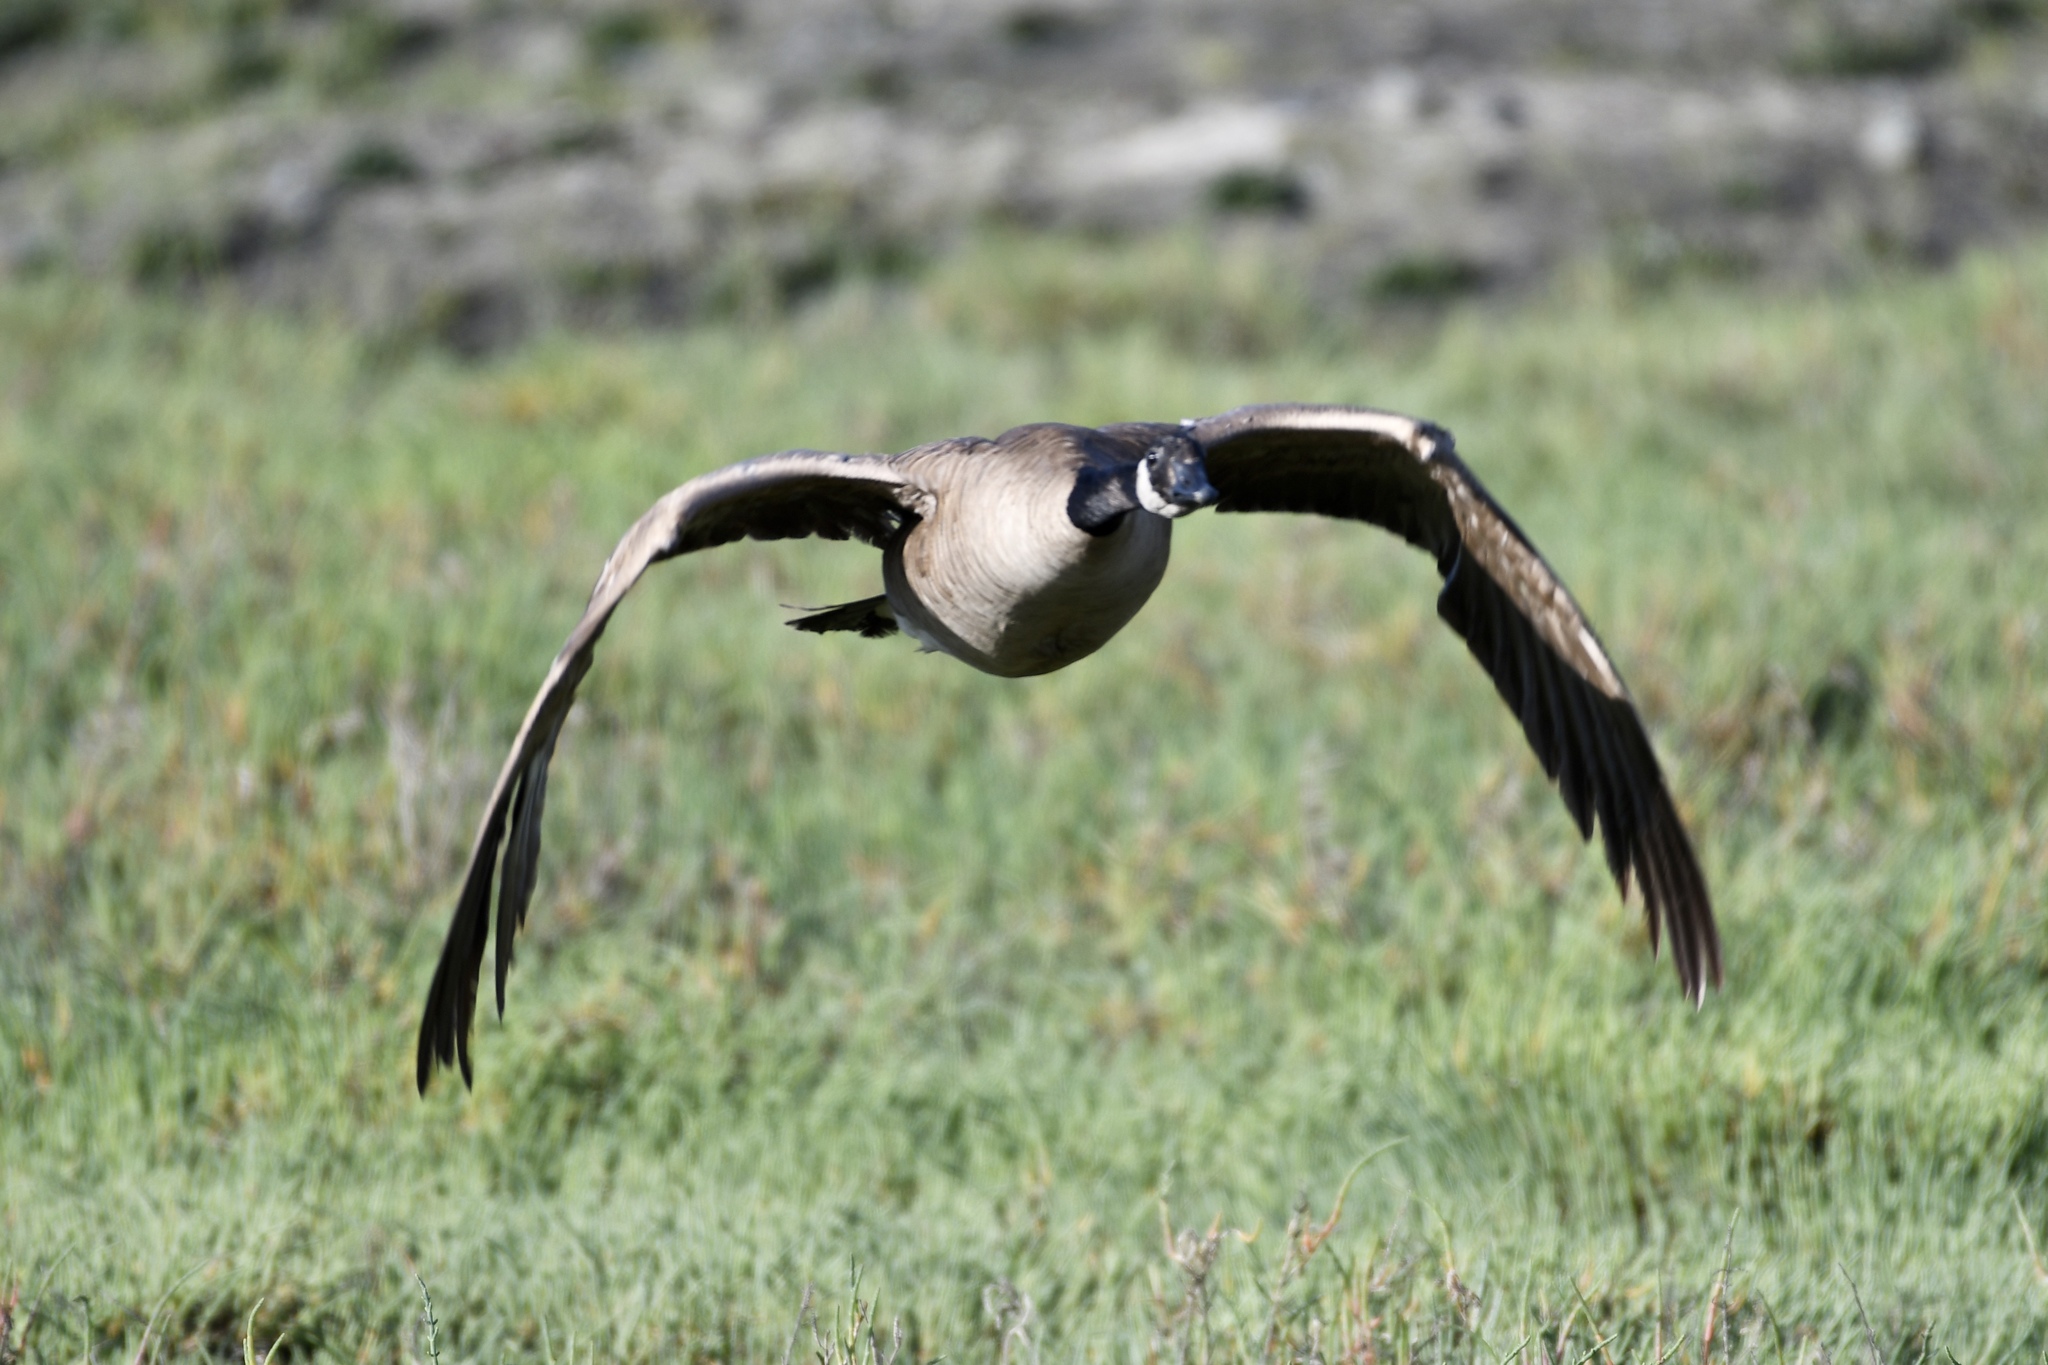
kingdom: Animalia
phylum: Chordata
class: Aves
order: Anseriformes
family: Anatidae
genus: Branta
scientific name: Branta canadensis
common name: Canada goose
